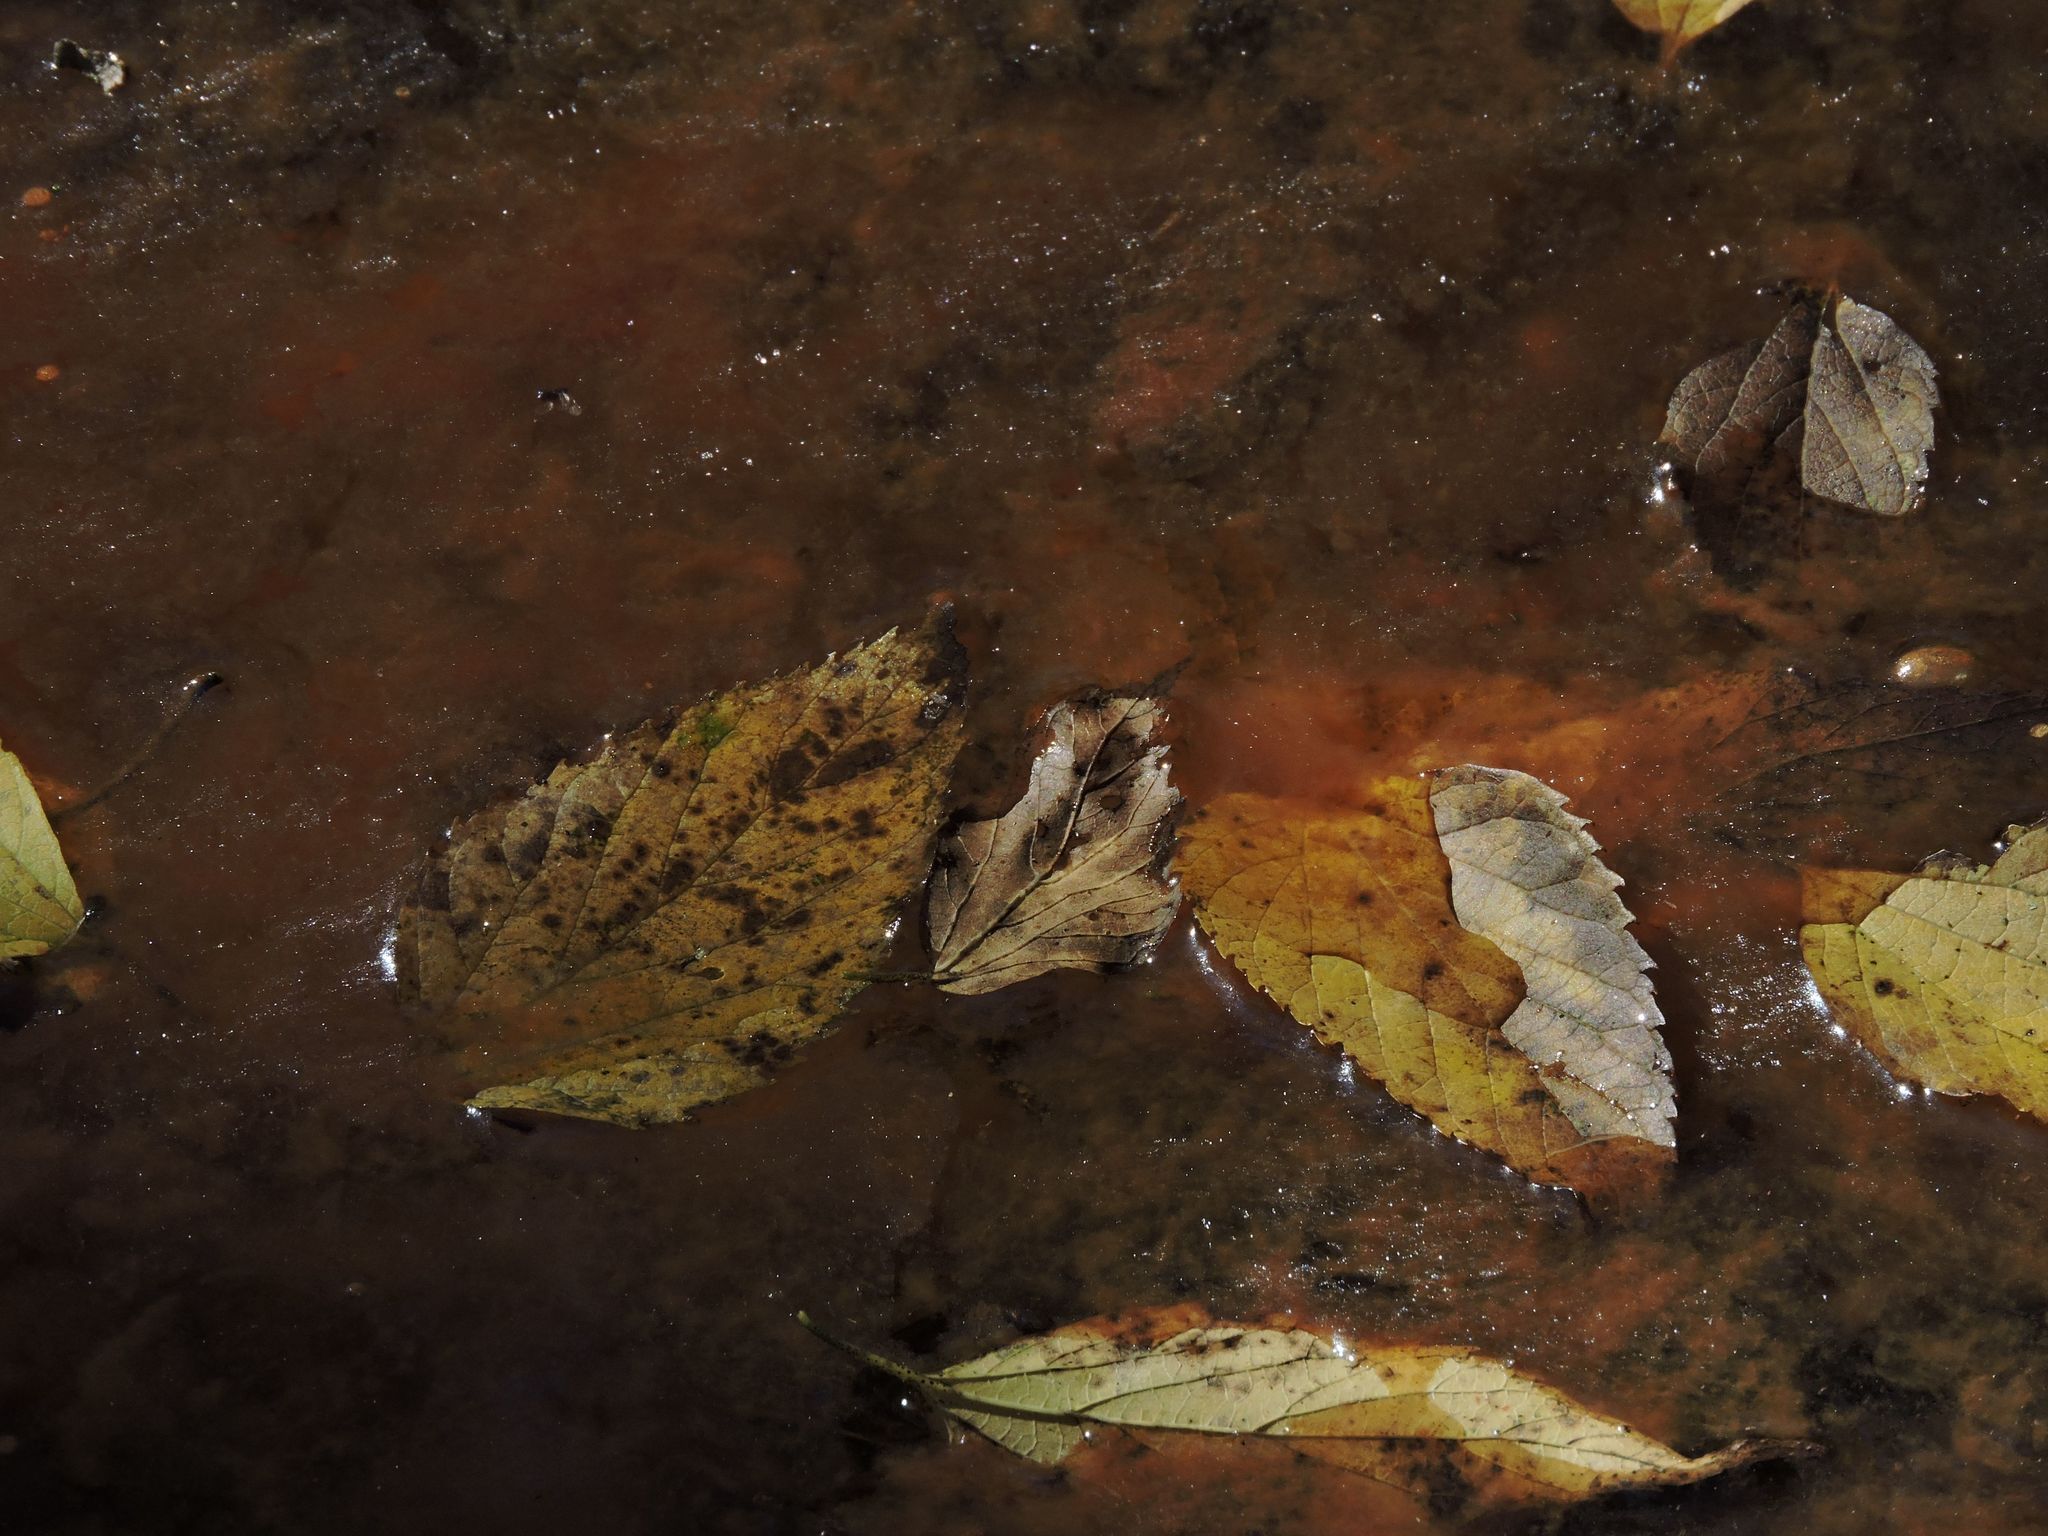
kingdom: Protozoa
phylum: Amoebozoa
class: Lobosa
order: Arcellinida
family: Arcellidae
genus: Arcella
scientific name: Arcella
